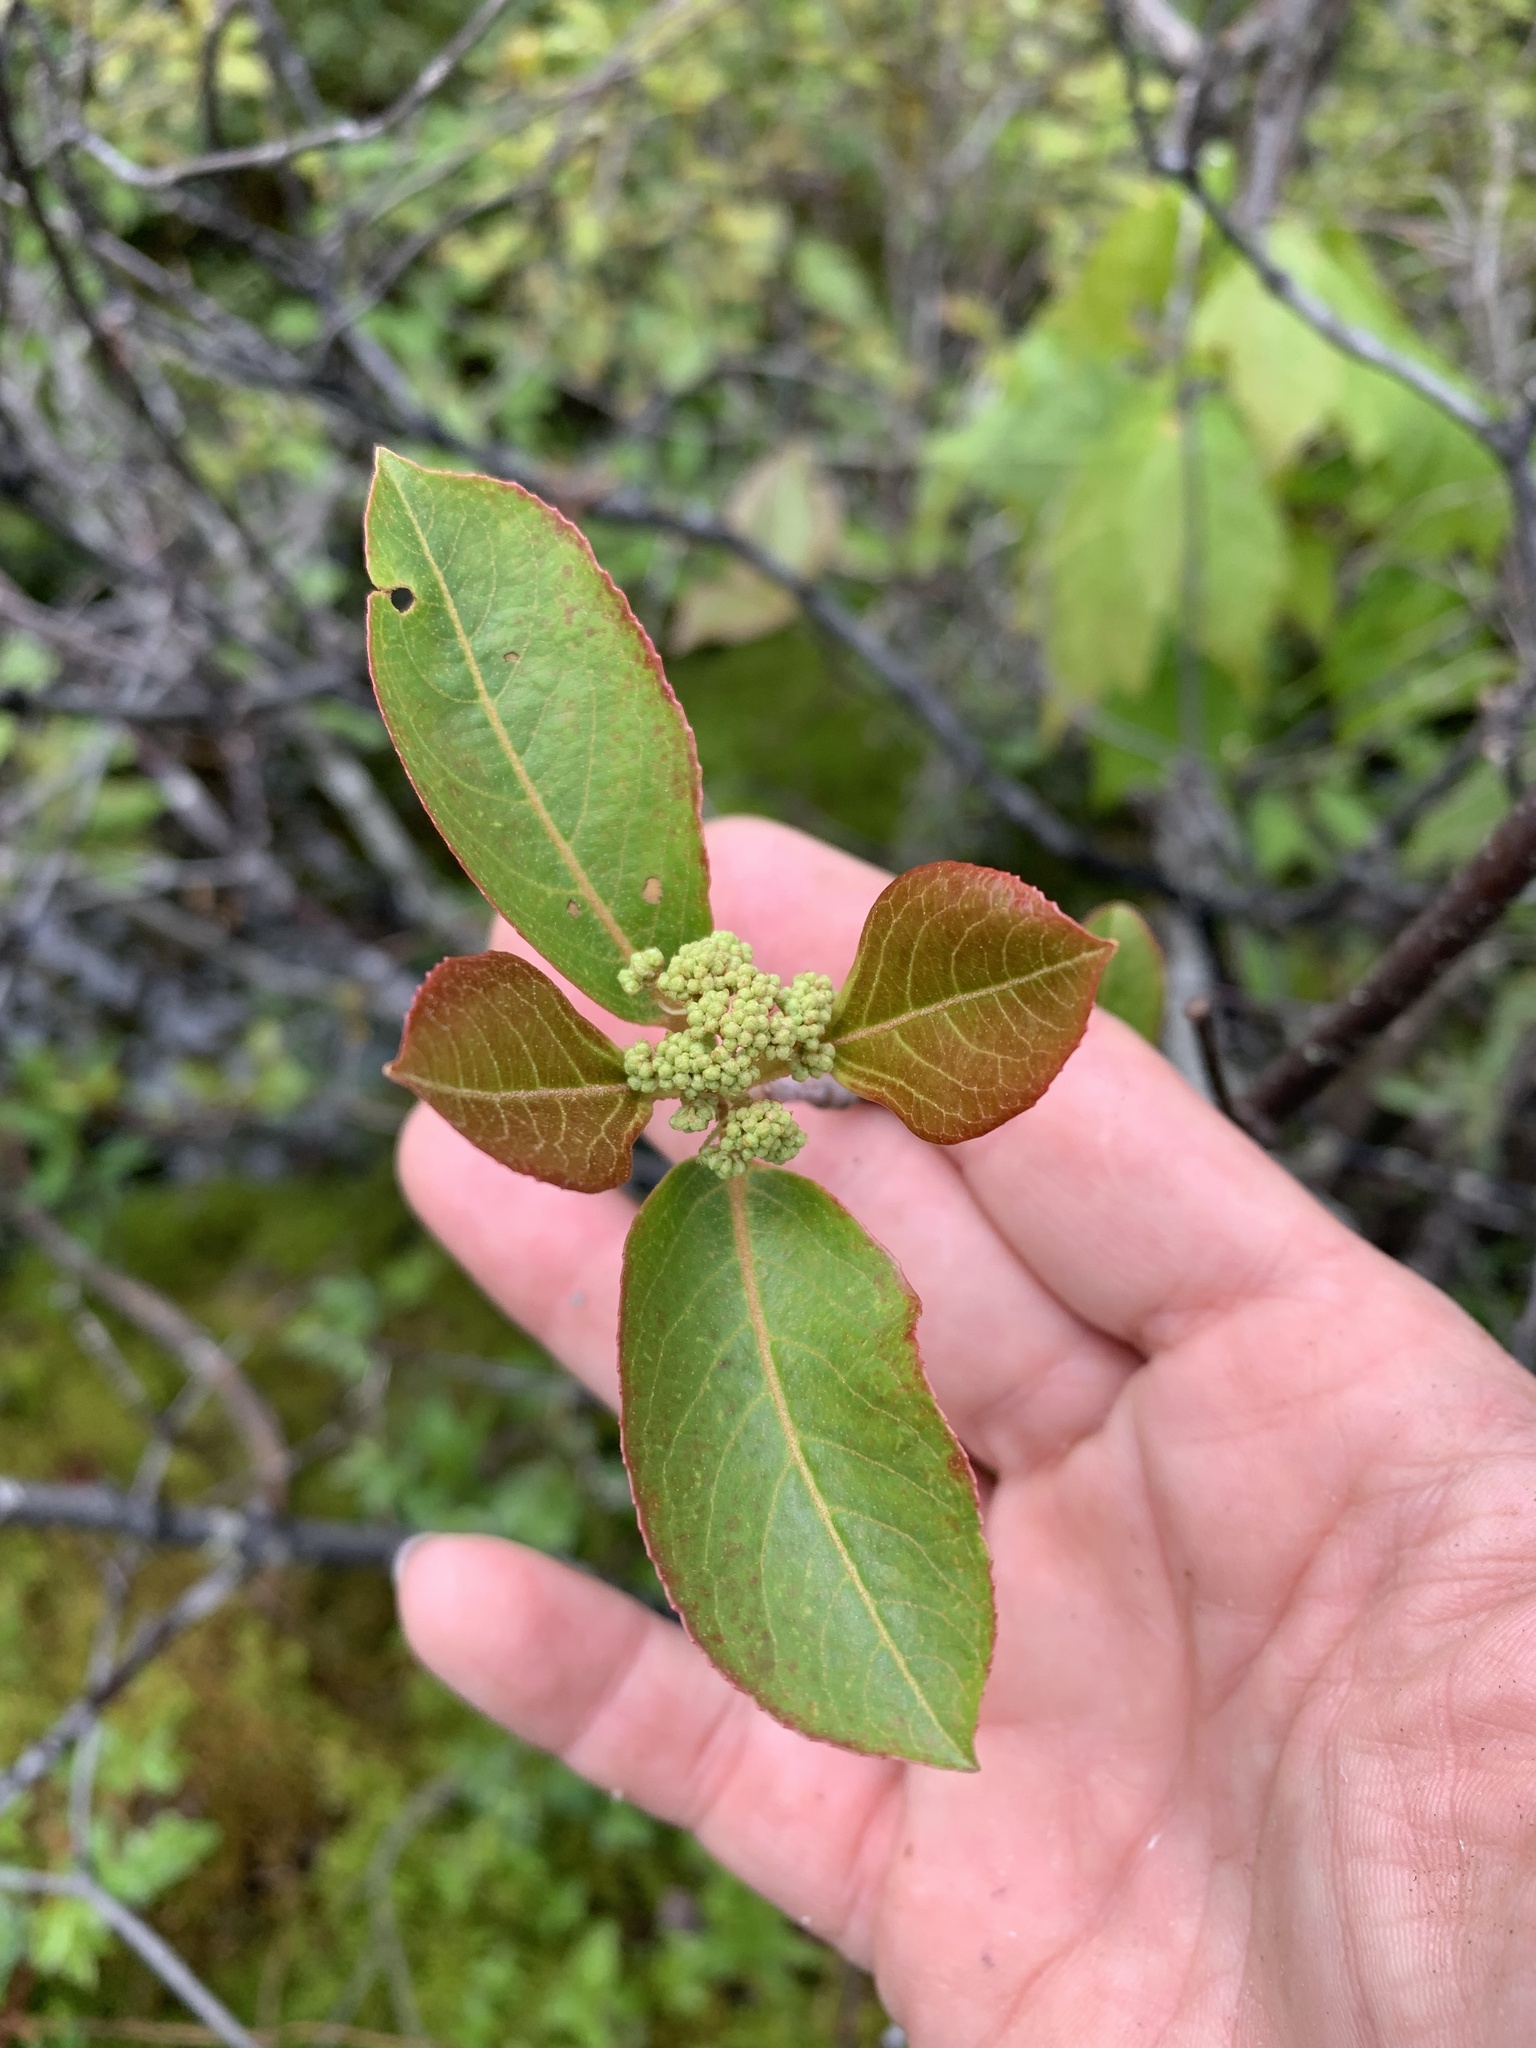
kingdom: Plantae
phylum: Tracheophyta
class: Magnoliopsida
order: Dipsacales
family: Viburnaceae
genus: Viburnum
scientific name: Viburnum cassinoides
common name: Swamp haw
